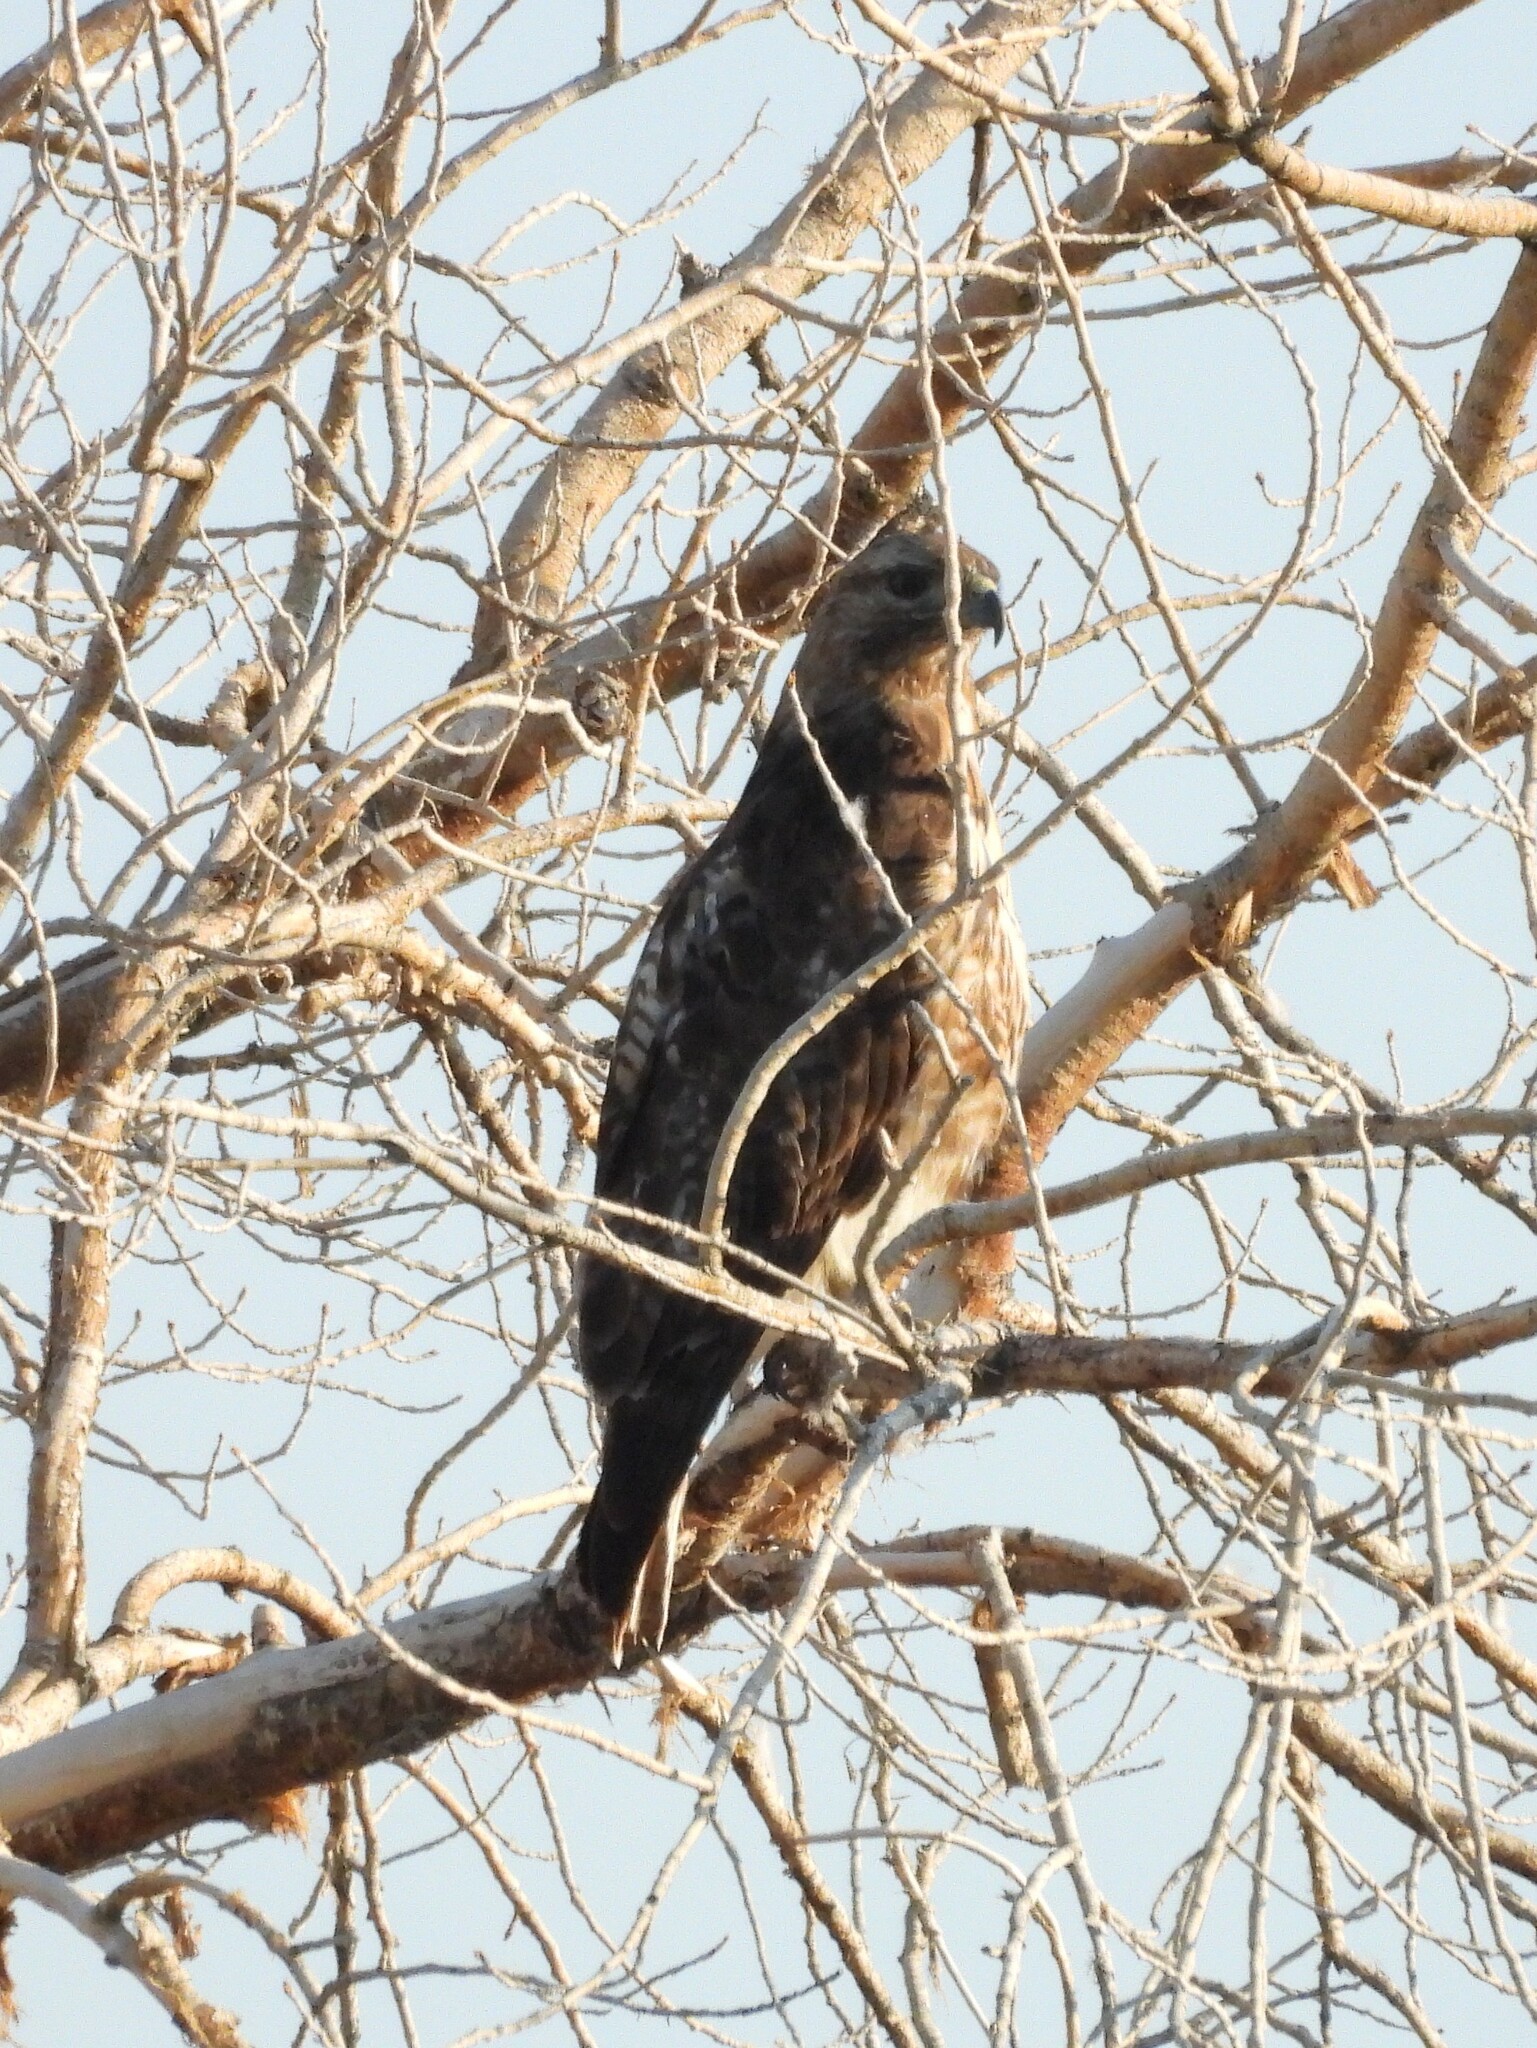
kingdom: Animalia
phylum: Chordata
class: Aves
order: Accipitriformes
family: Accipitridae
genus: Buteo
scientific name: Buteo jamaicensis
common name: Red-tailed hawk
